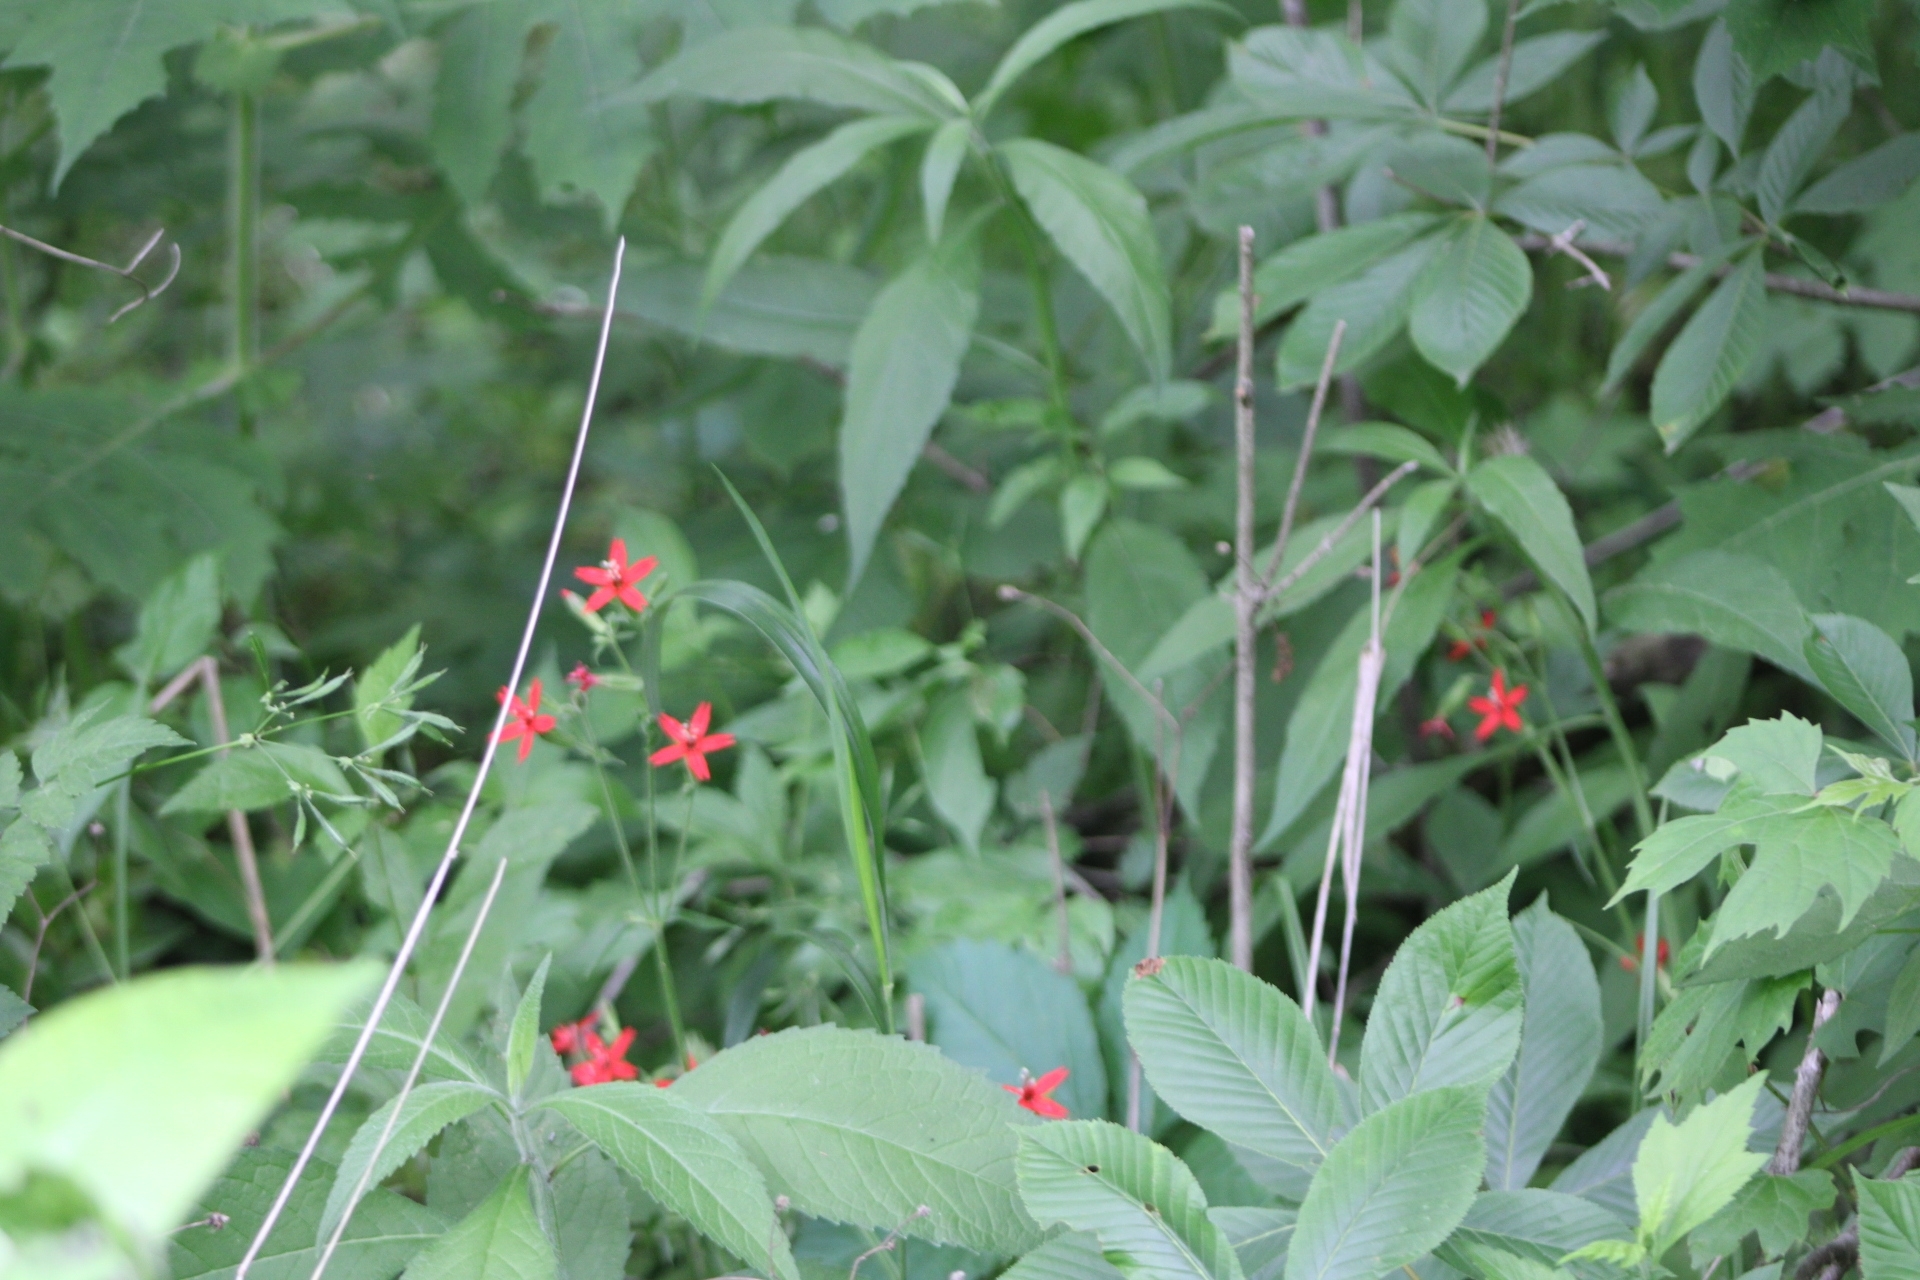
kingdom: Plantae
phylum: Tracheophyta
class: Magnoliopsida
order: Caryophyllales
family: Caryophyllaceae
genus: Silene
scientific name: Silene virginica
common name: Fire-pink
